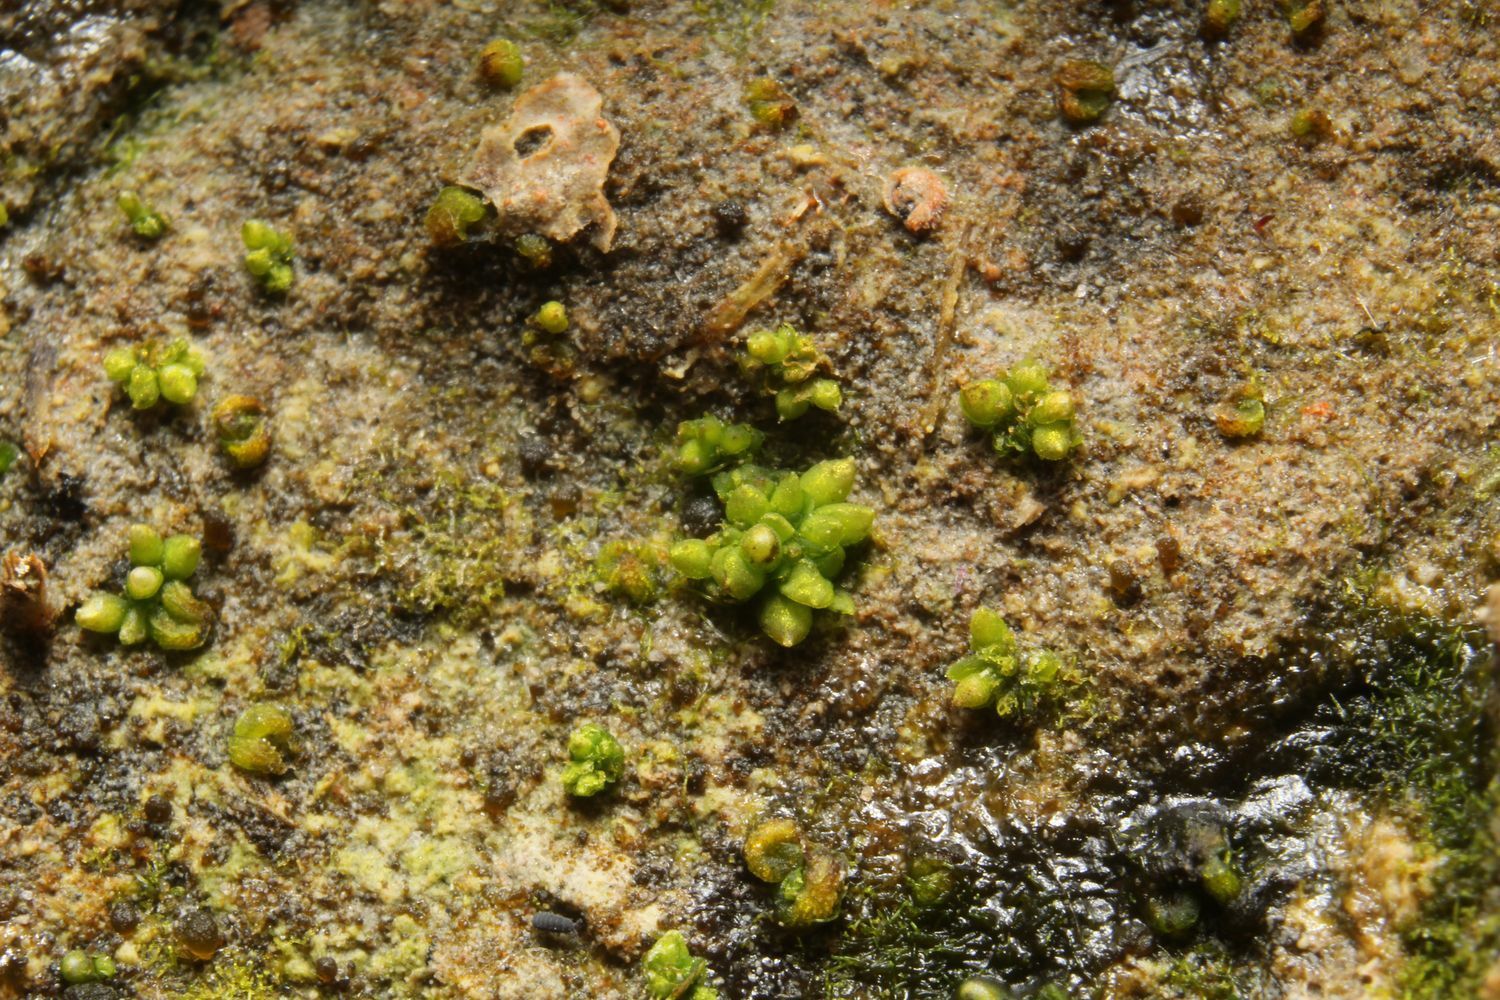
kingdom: Plantae
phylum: Marchantiophyta
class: Marchantiopsida
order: Sphaerocarpales
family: Riellaceae
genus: Austroriella
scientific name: Austroriella salta
